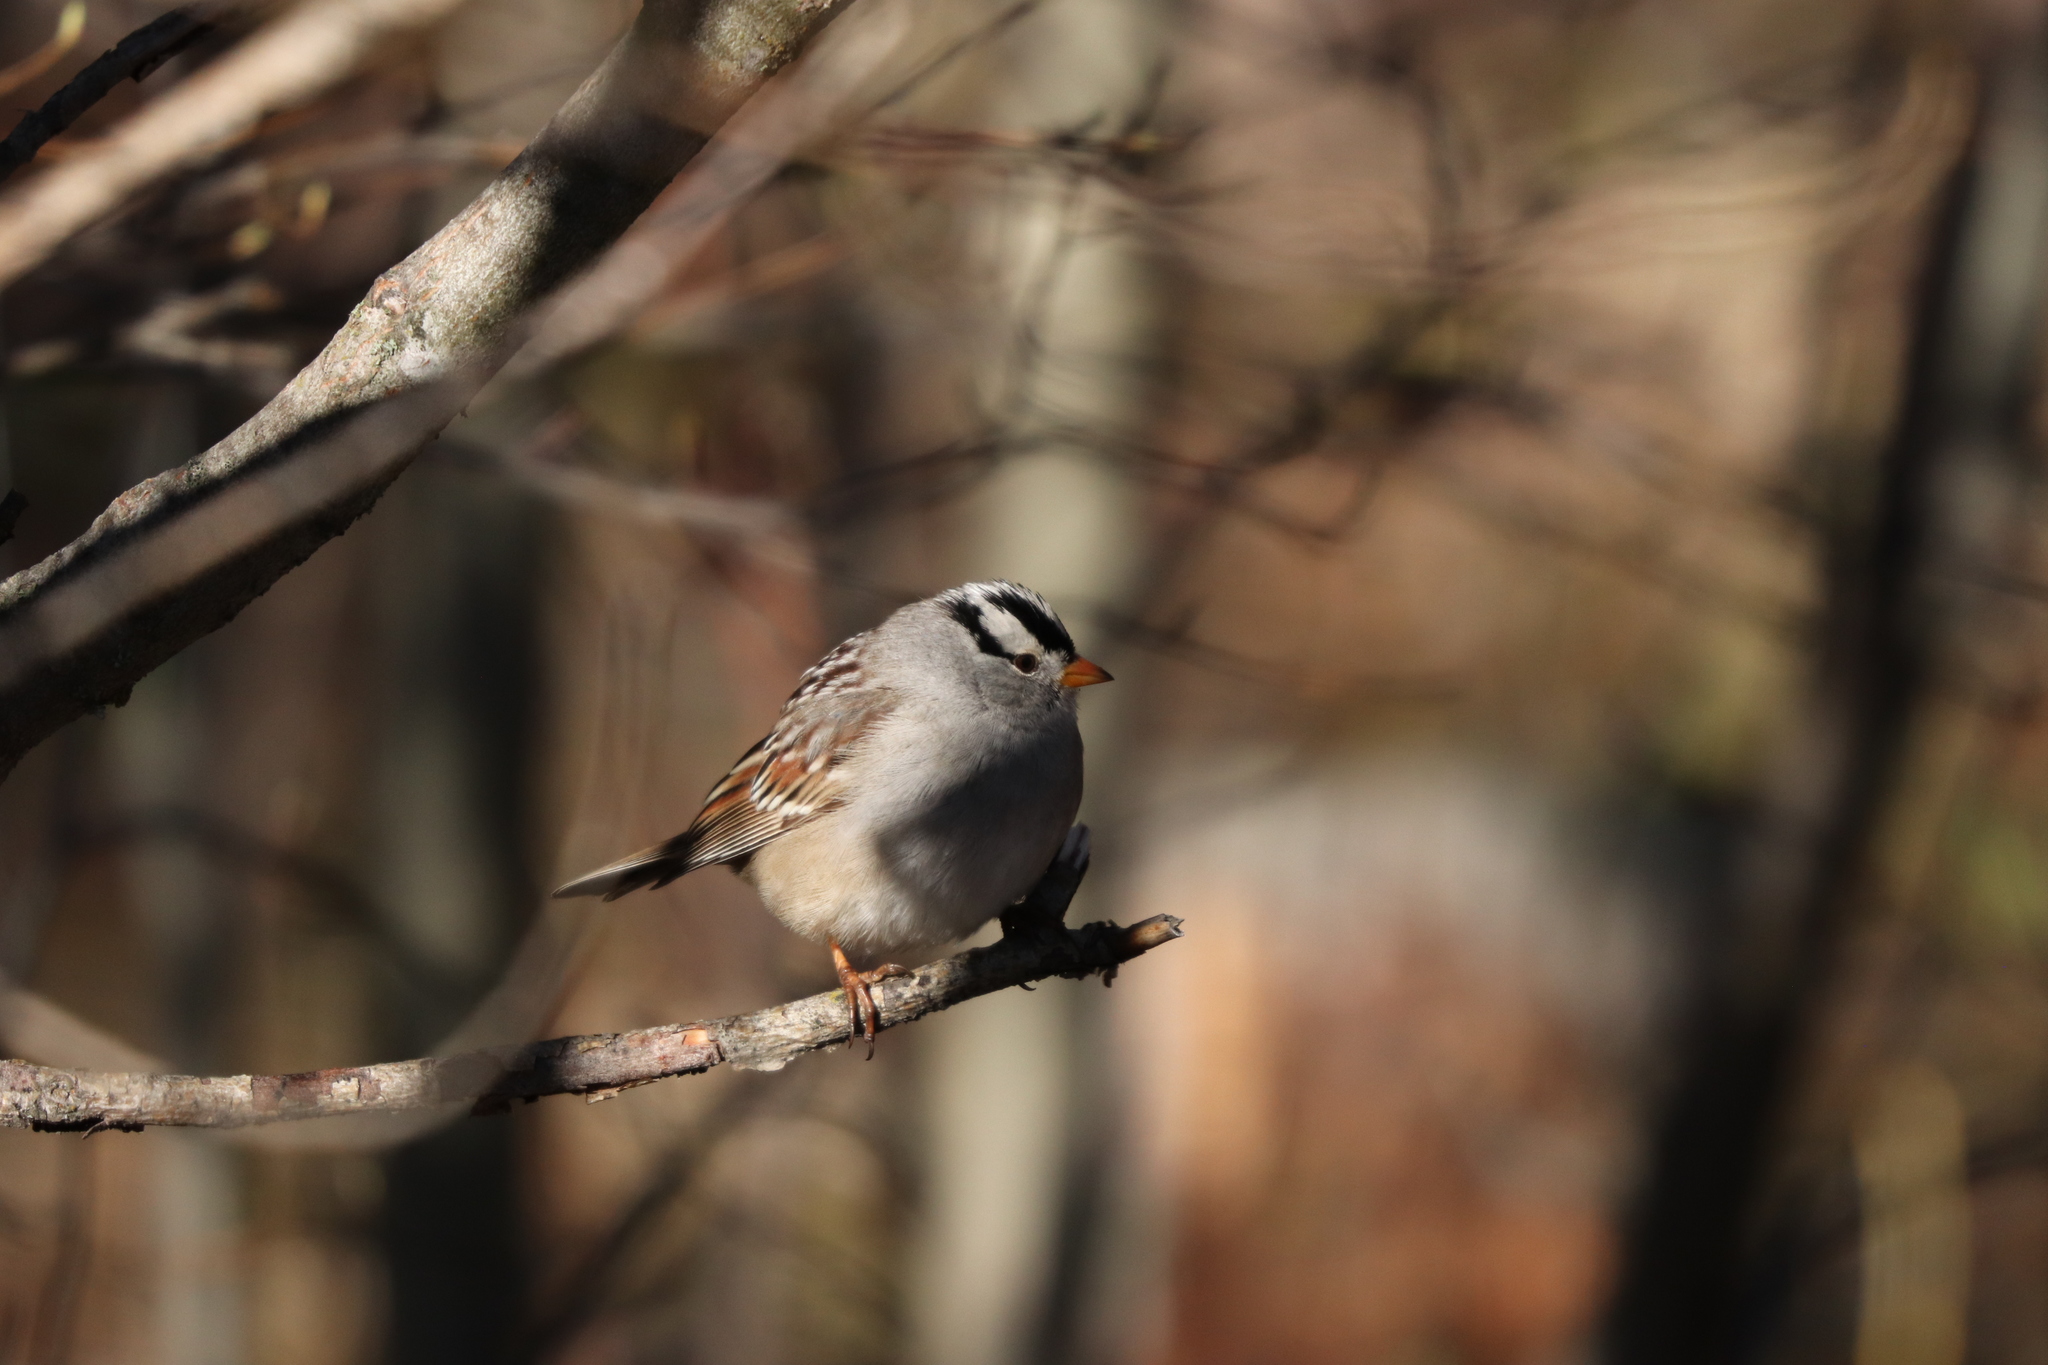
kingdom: Animalia
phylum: Chordata
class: Aves
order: Passeriformes
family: Passerellidae
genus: Zonotrichia
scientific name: Zonotrichia leucophrys
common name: White-crowned sparrow
